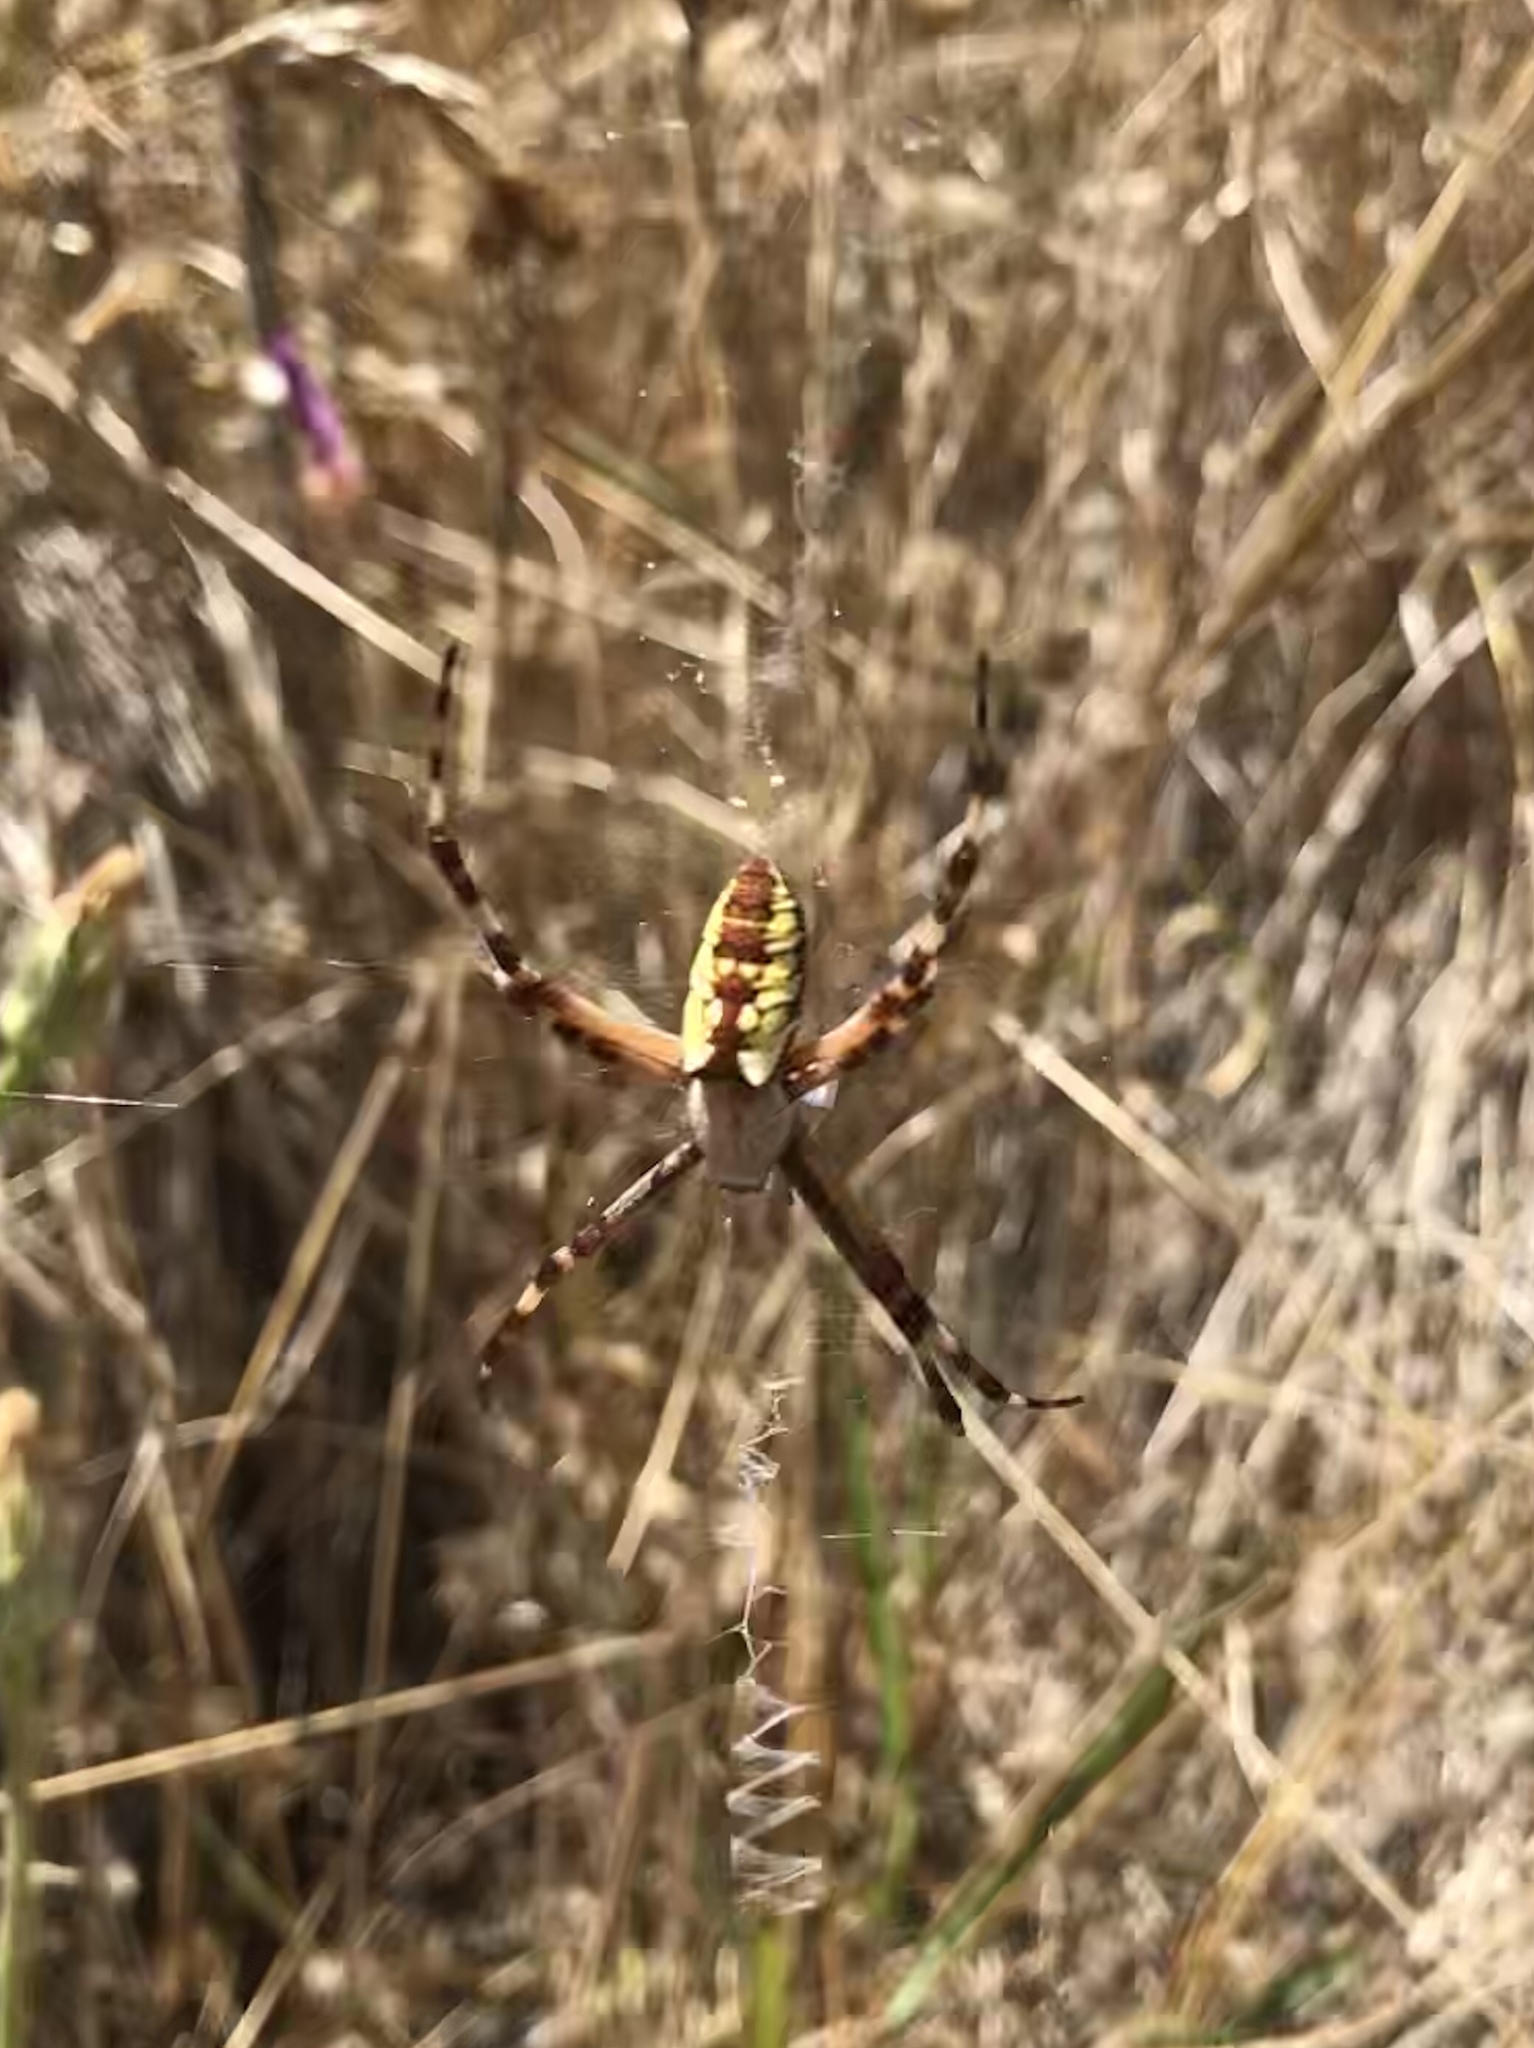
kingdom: Animalia
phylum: Arthropoda
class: Arachnida
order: Araneae
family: Araneidae
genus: Argiope
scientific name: Argiope aurantia
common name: Orb weavers
